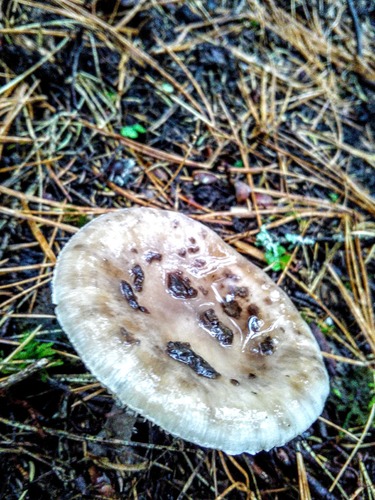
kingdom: Fungi
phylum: Basidiomycota
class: Agaricomycetes
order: Agaricales
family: Amanitaceae
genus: Amanita
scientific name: Amanita porphyria
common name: Grey veiled amanita
